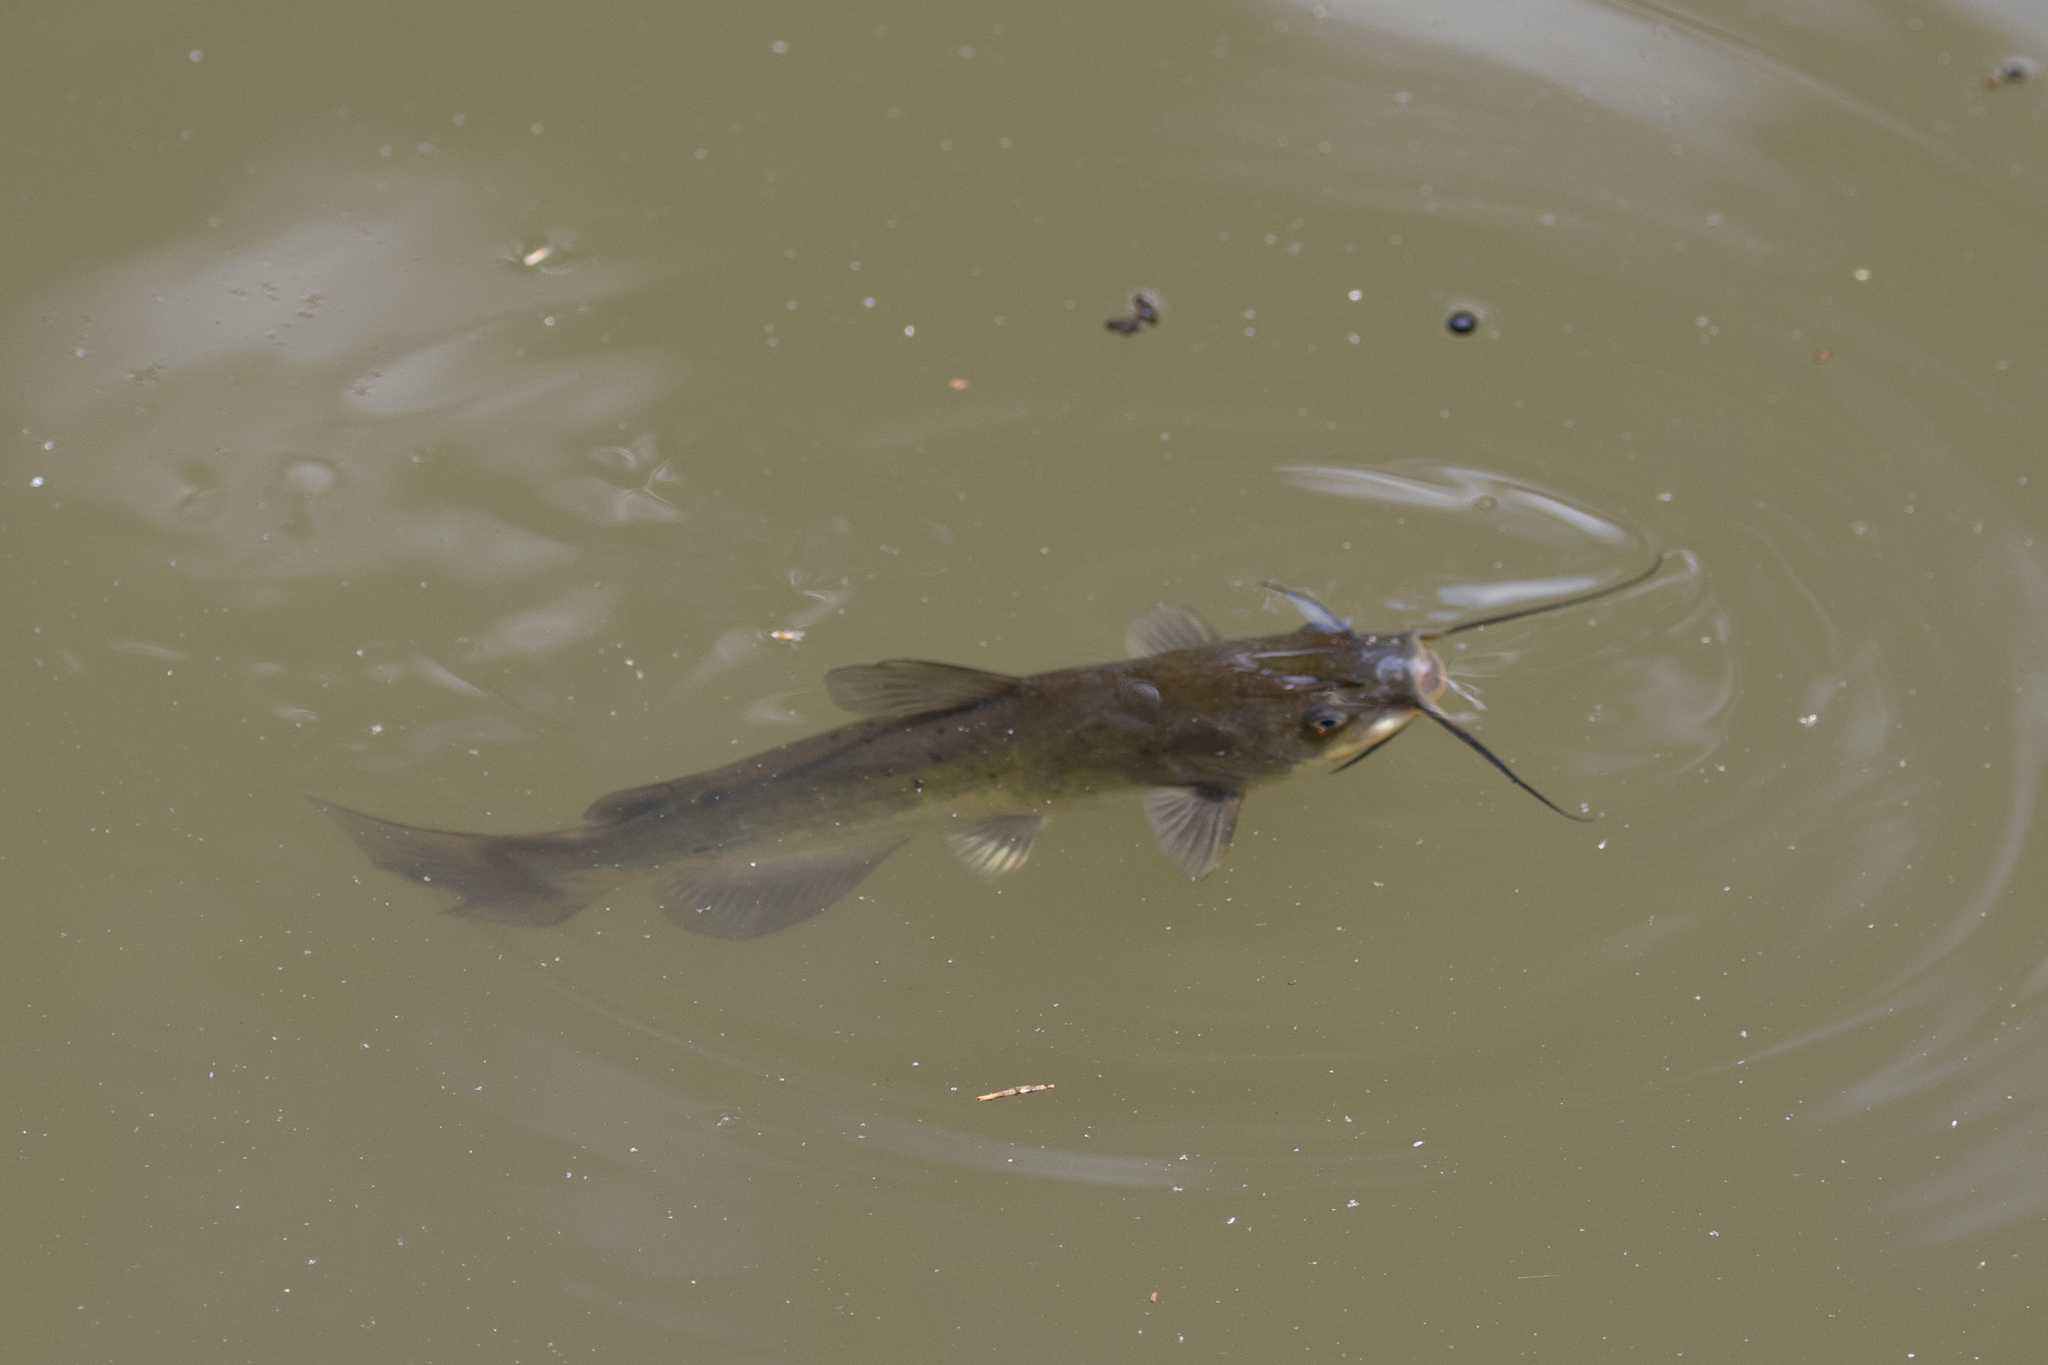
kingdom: Animalia
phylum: Chordata
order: Siluriformes
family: Ictaluridae
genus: Ictalurus
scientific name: Ictalurus punctatus
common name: Channel catfish
